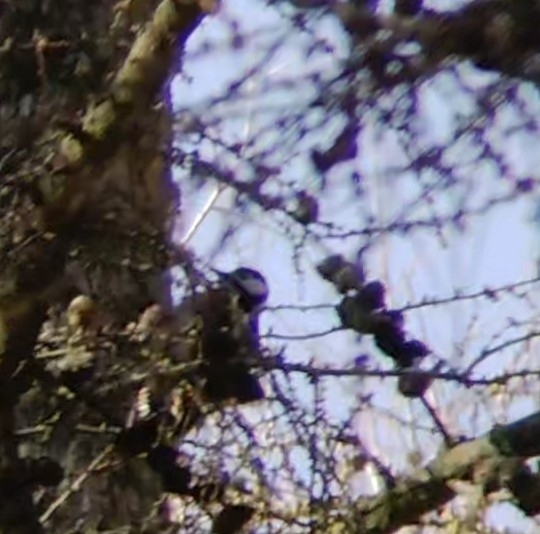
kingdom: Animalia
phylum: Chordata
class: Aves
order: Piciformes
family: Picidae
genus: Dendrocopos
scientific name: Dendrocopos major
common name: Great spotted woodpecker
